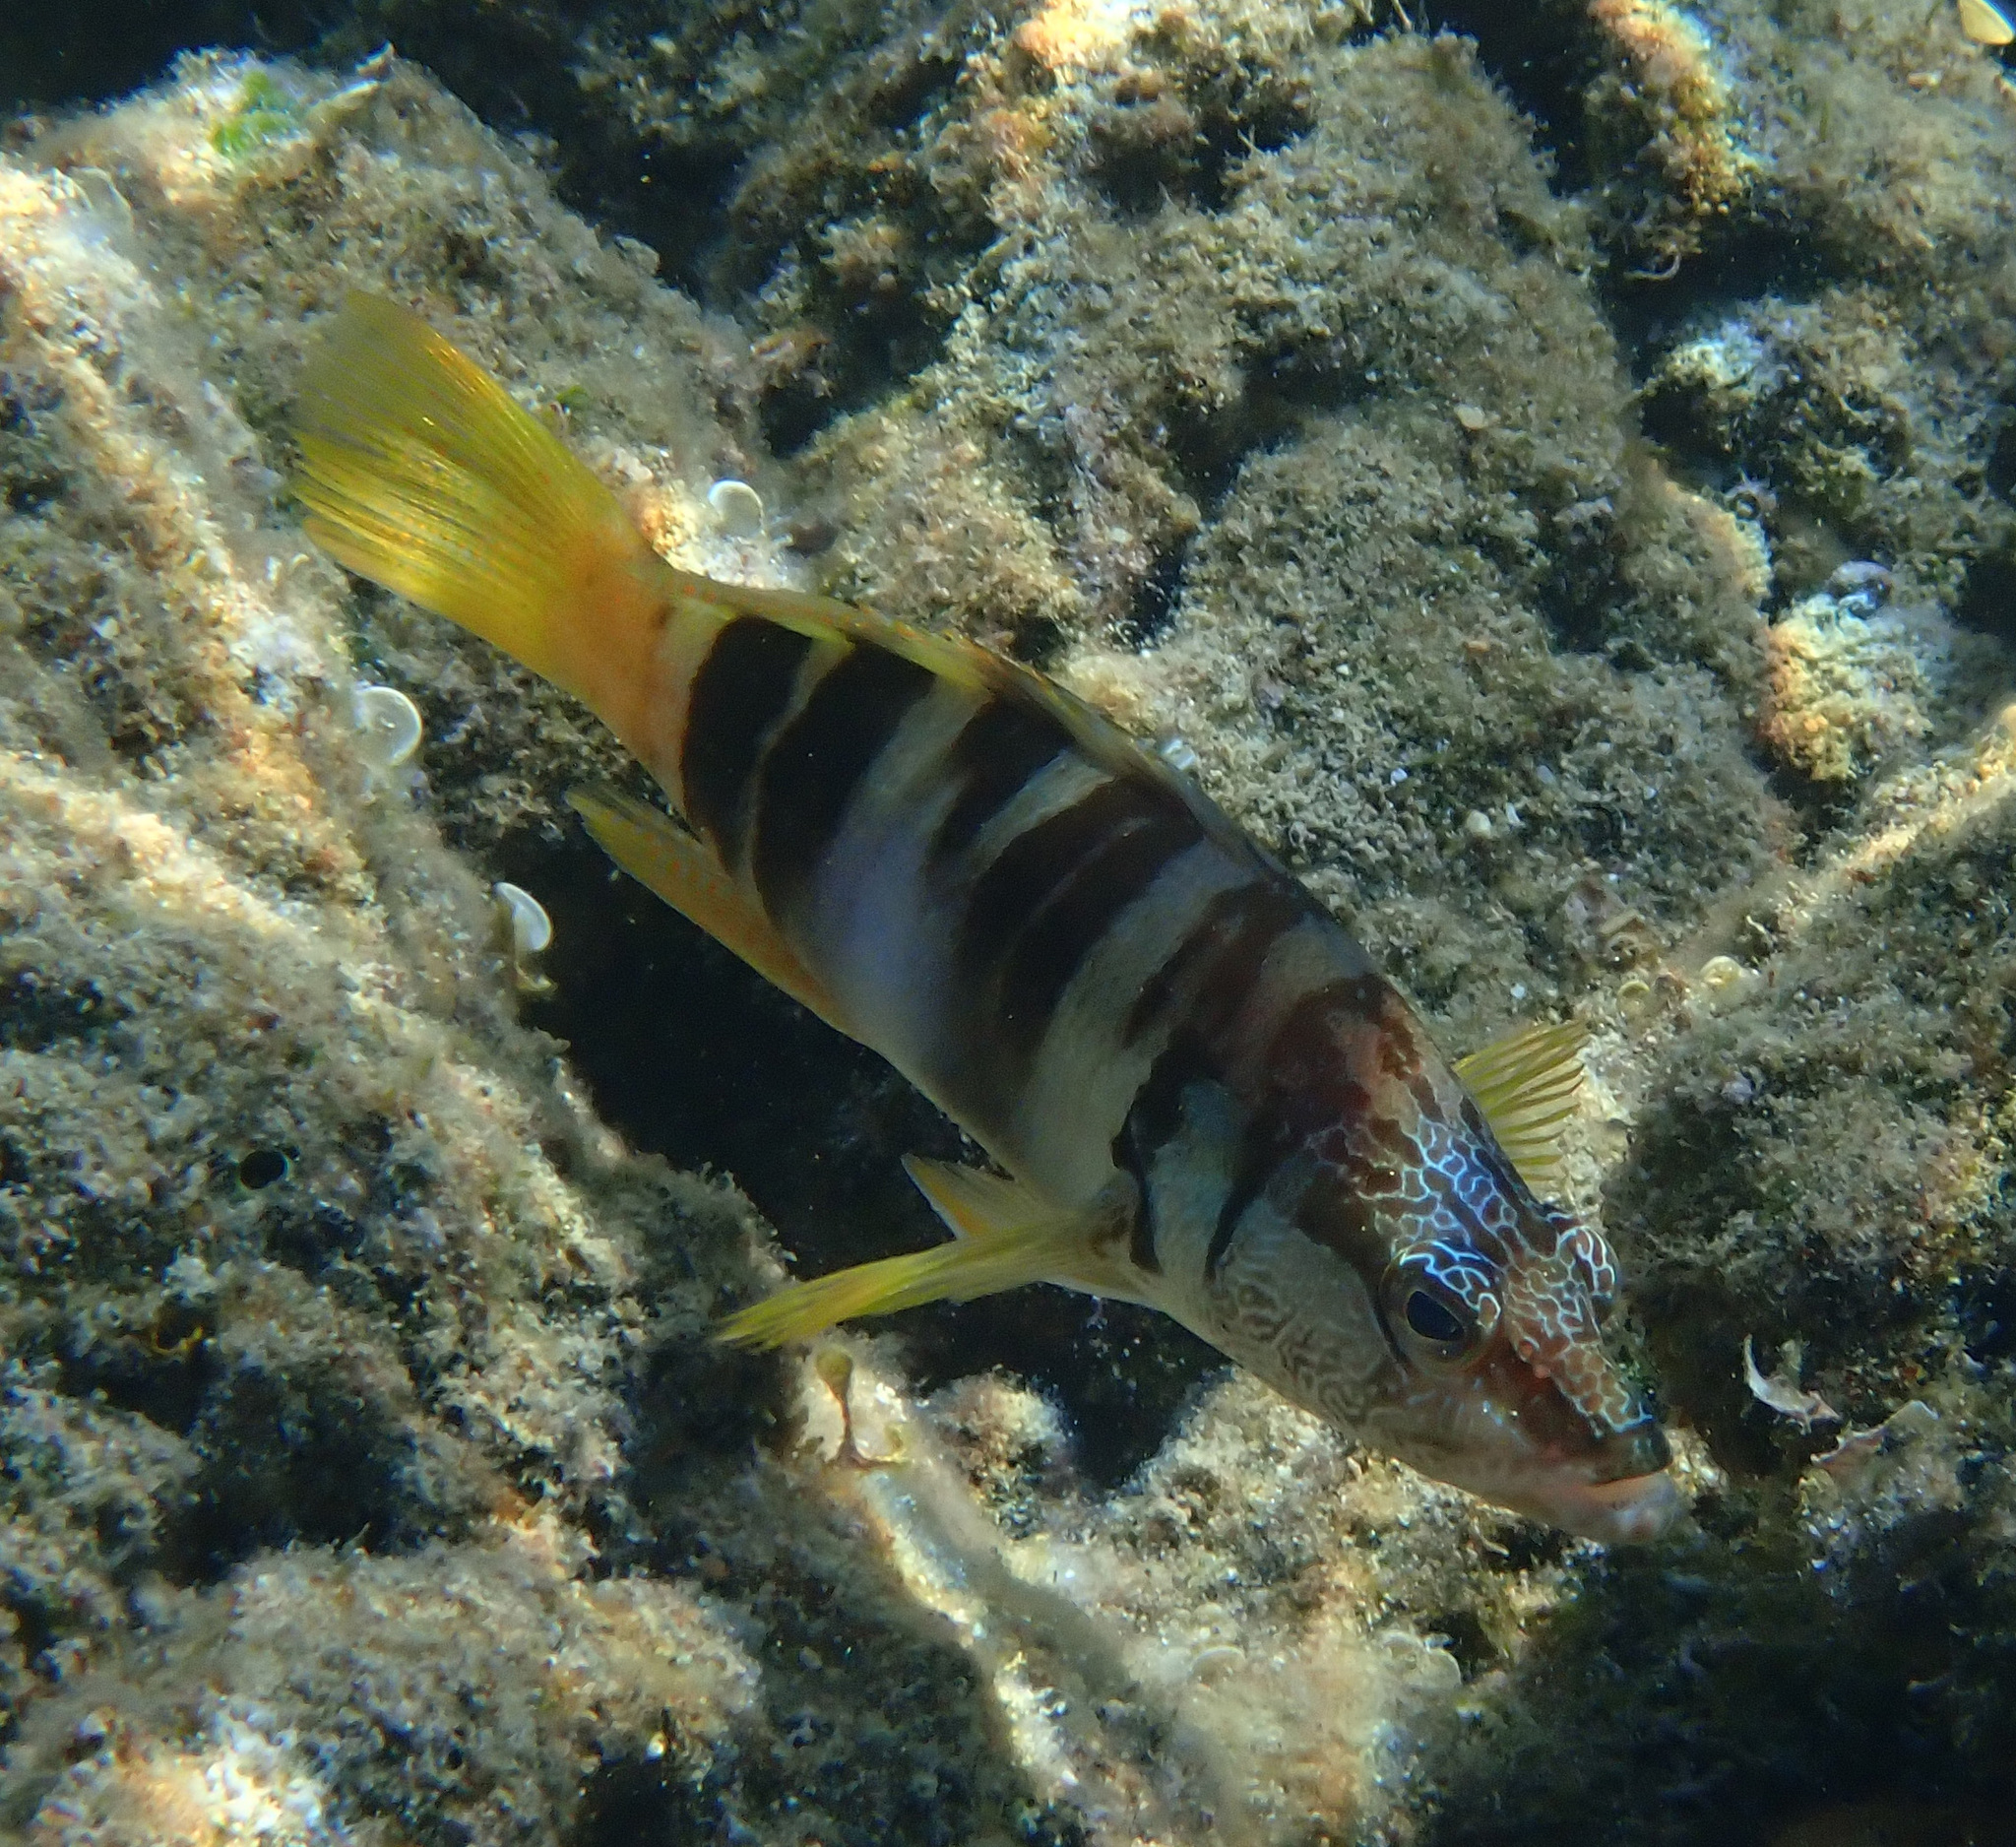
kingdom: Animalia
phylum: Chordata
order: Perciformes
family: Serranidae
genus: Serranus
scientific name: Serranus scriba
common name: Painted comber
